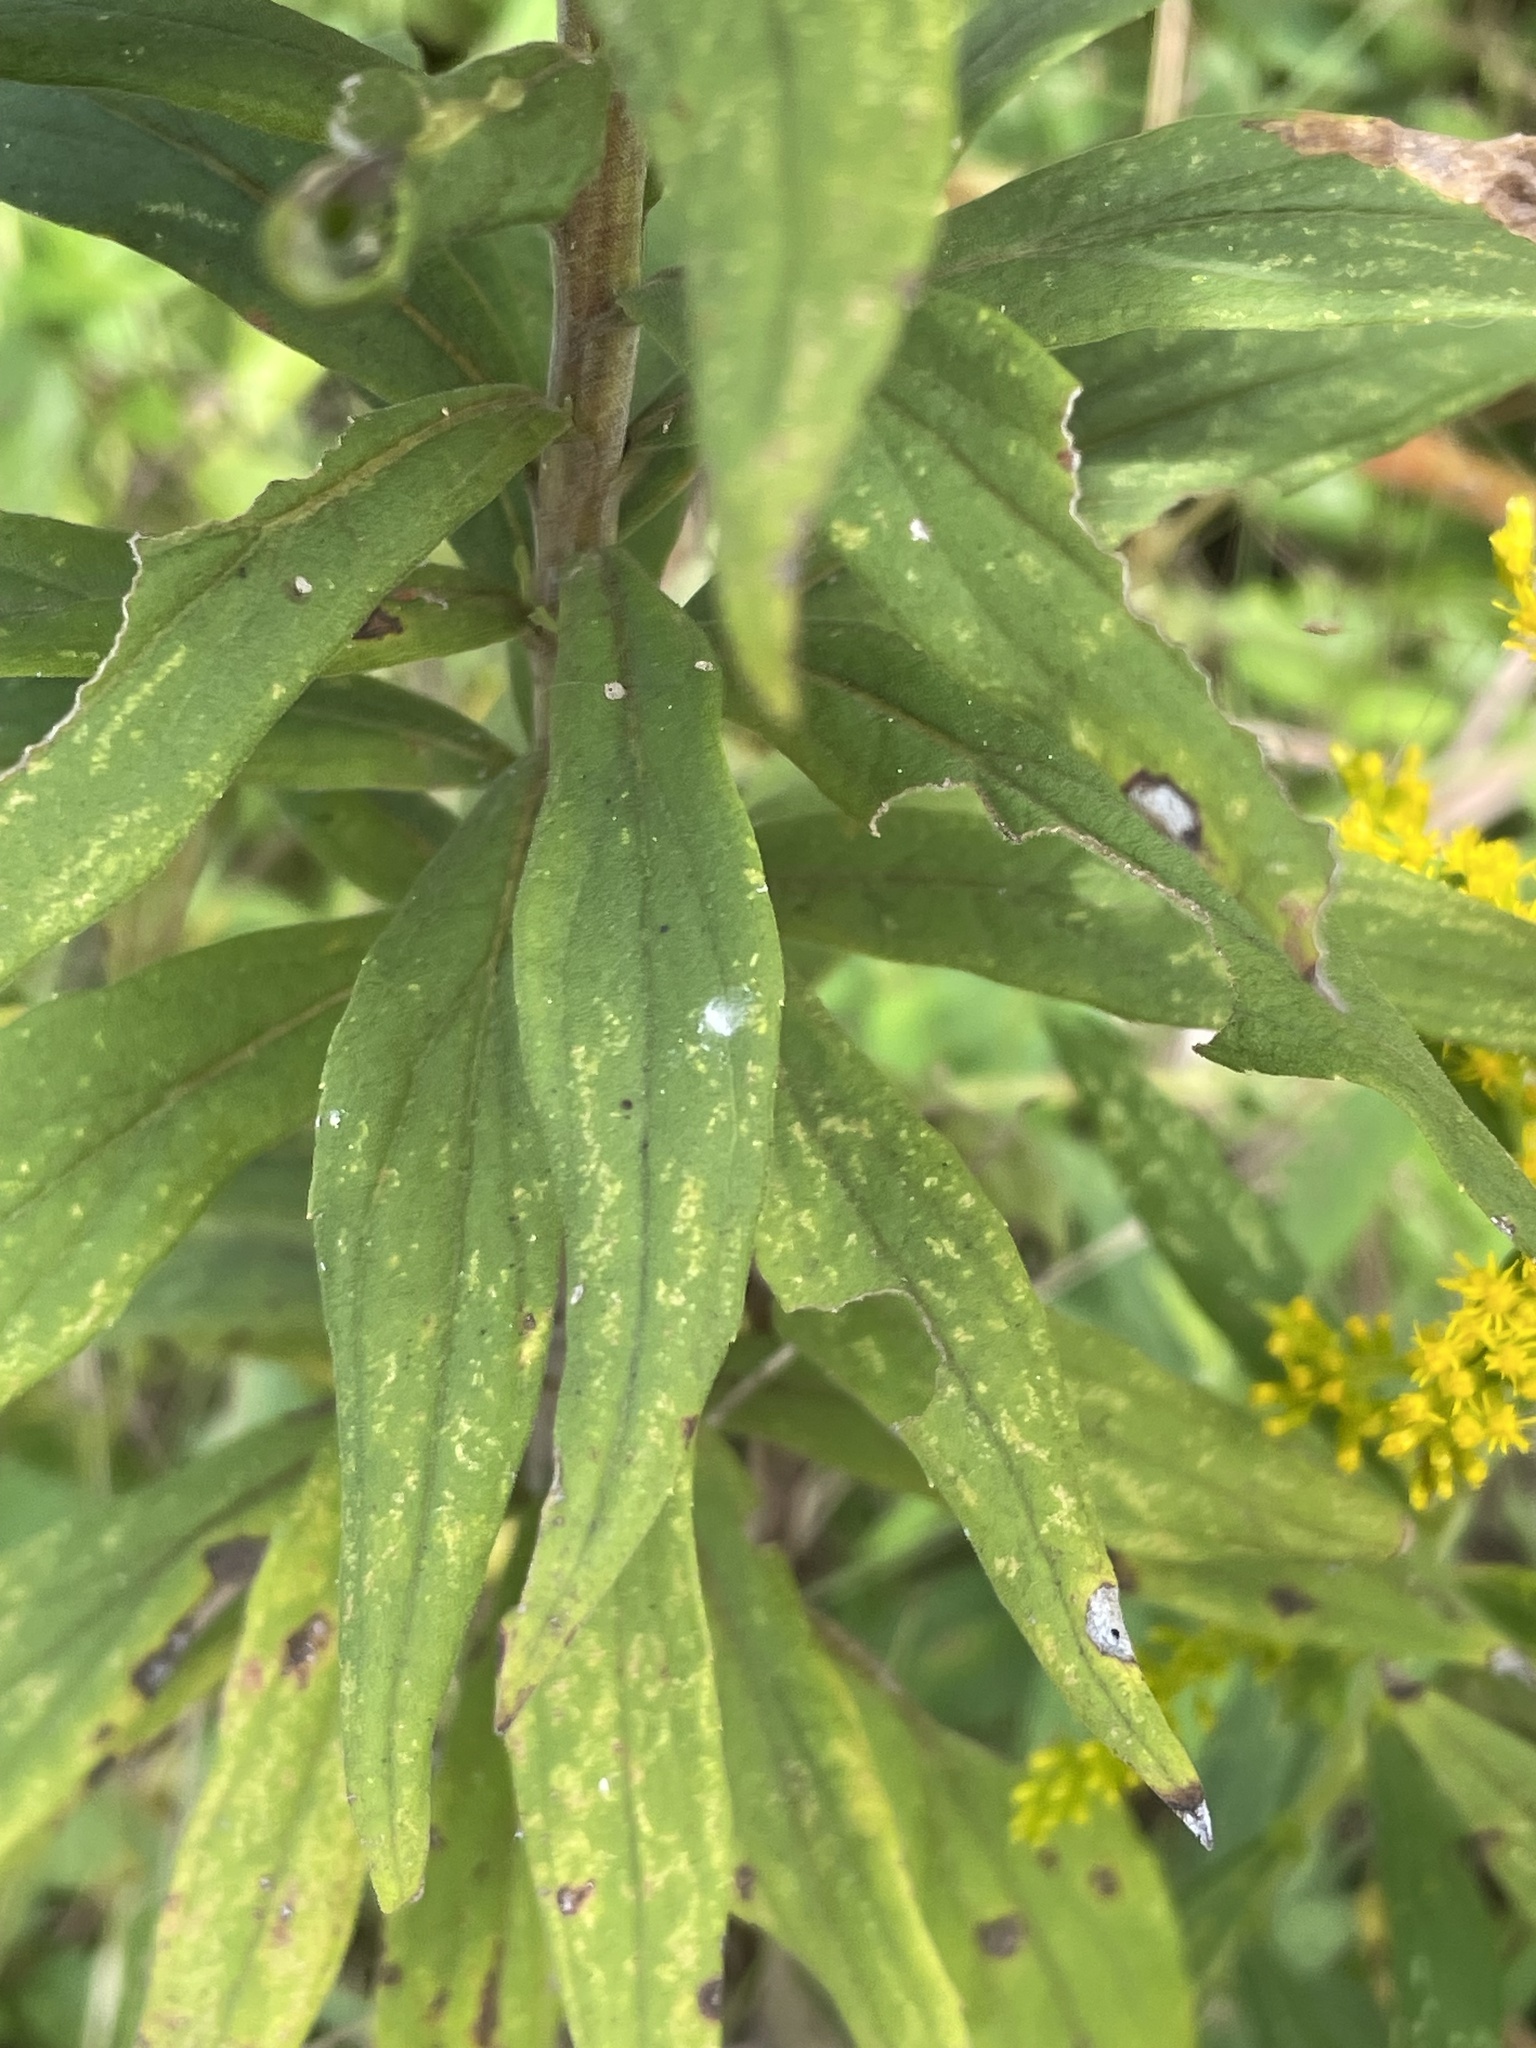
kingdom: Plantae
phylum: Tracheophyta
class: Magnoliopsida
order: Asterales
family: Asteraceae
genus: Solidago
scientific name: Solidago altissima
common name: Late goldenrod
